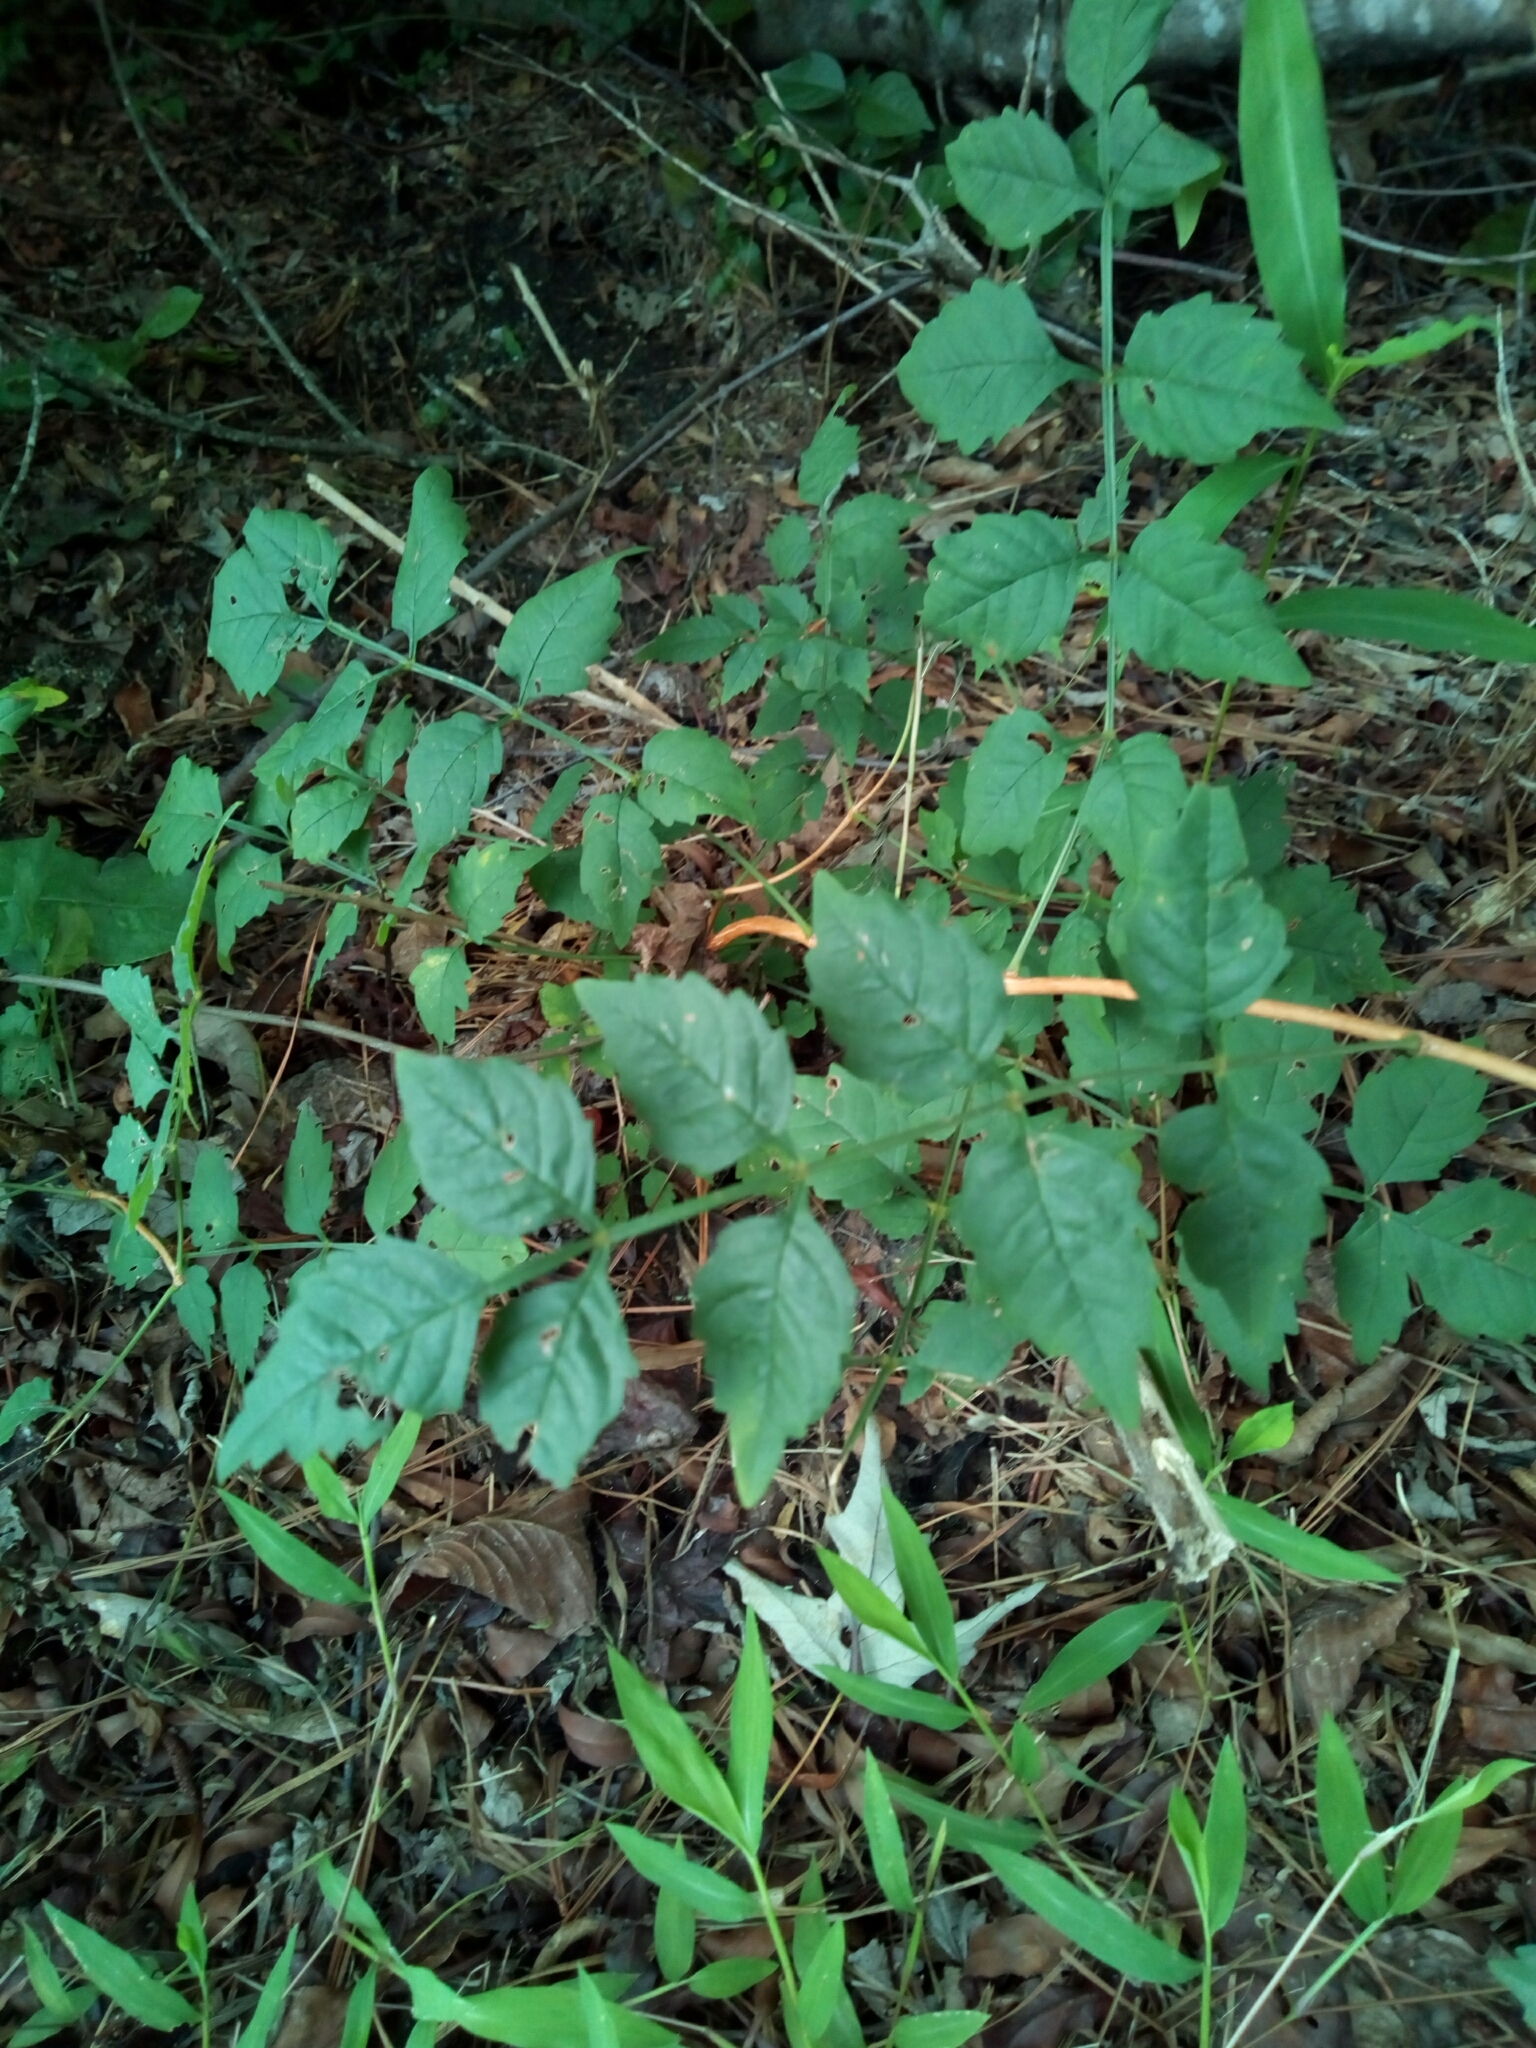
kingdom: Plantae
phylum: Tracheophyta
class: Magnoliopsida
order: Lamiales
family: Bignoniaceae
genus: Campsis
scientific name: Campsis radicans
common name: Trumpet-creeper
